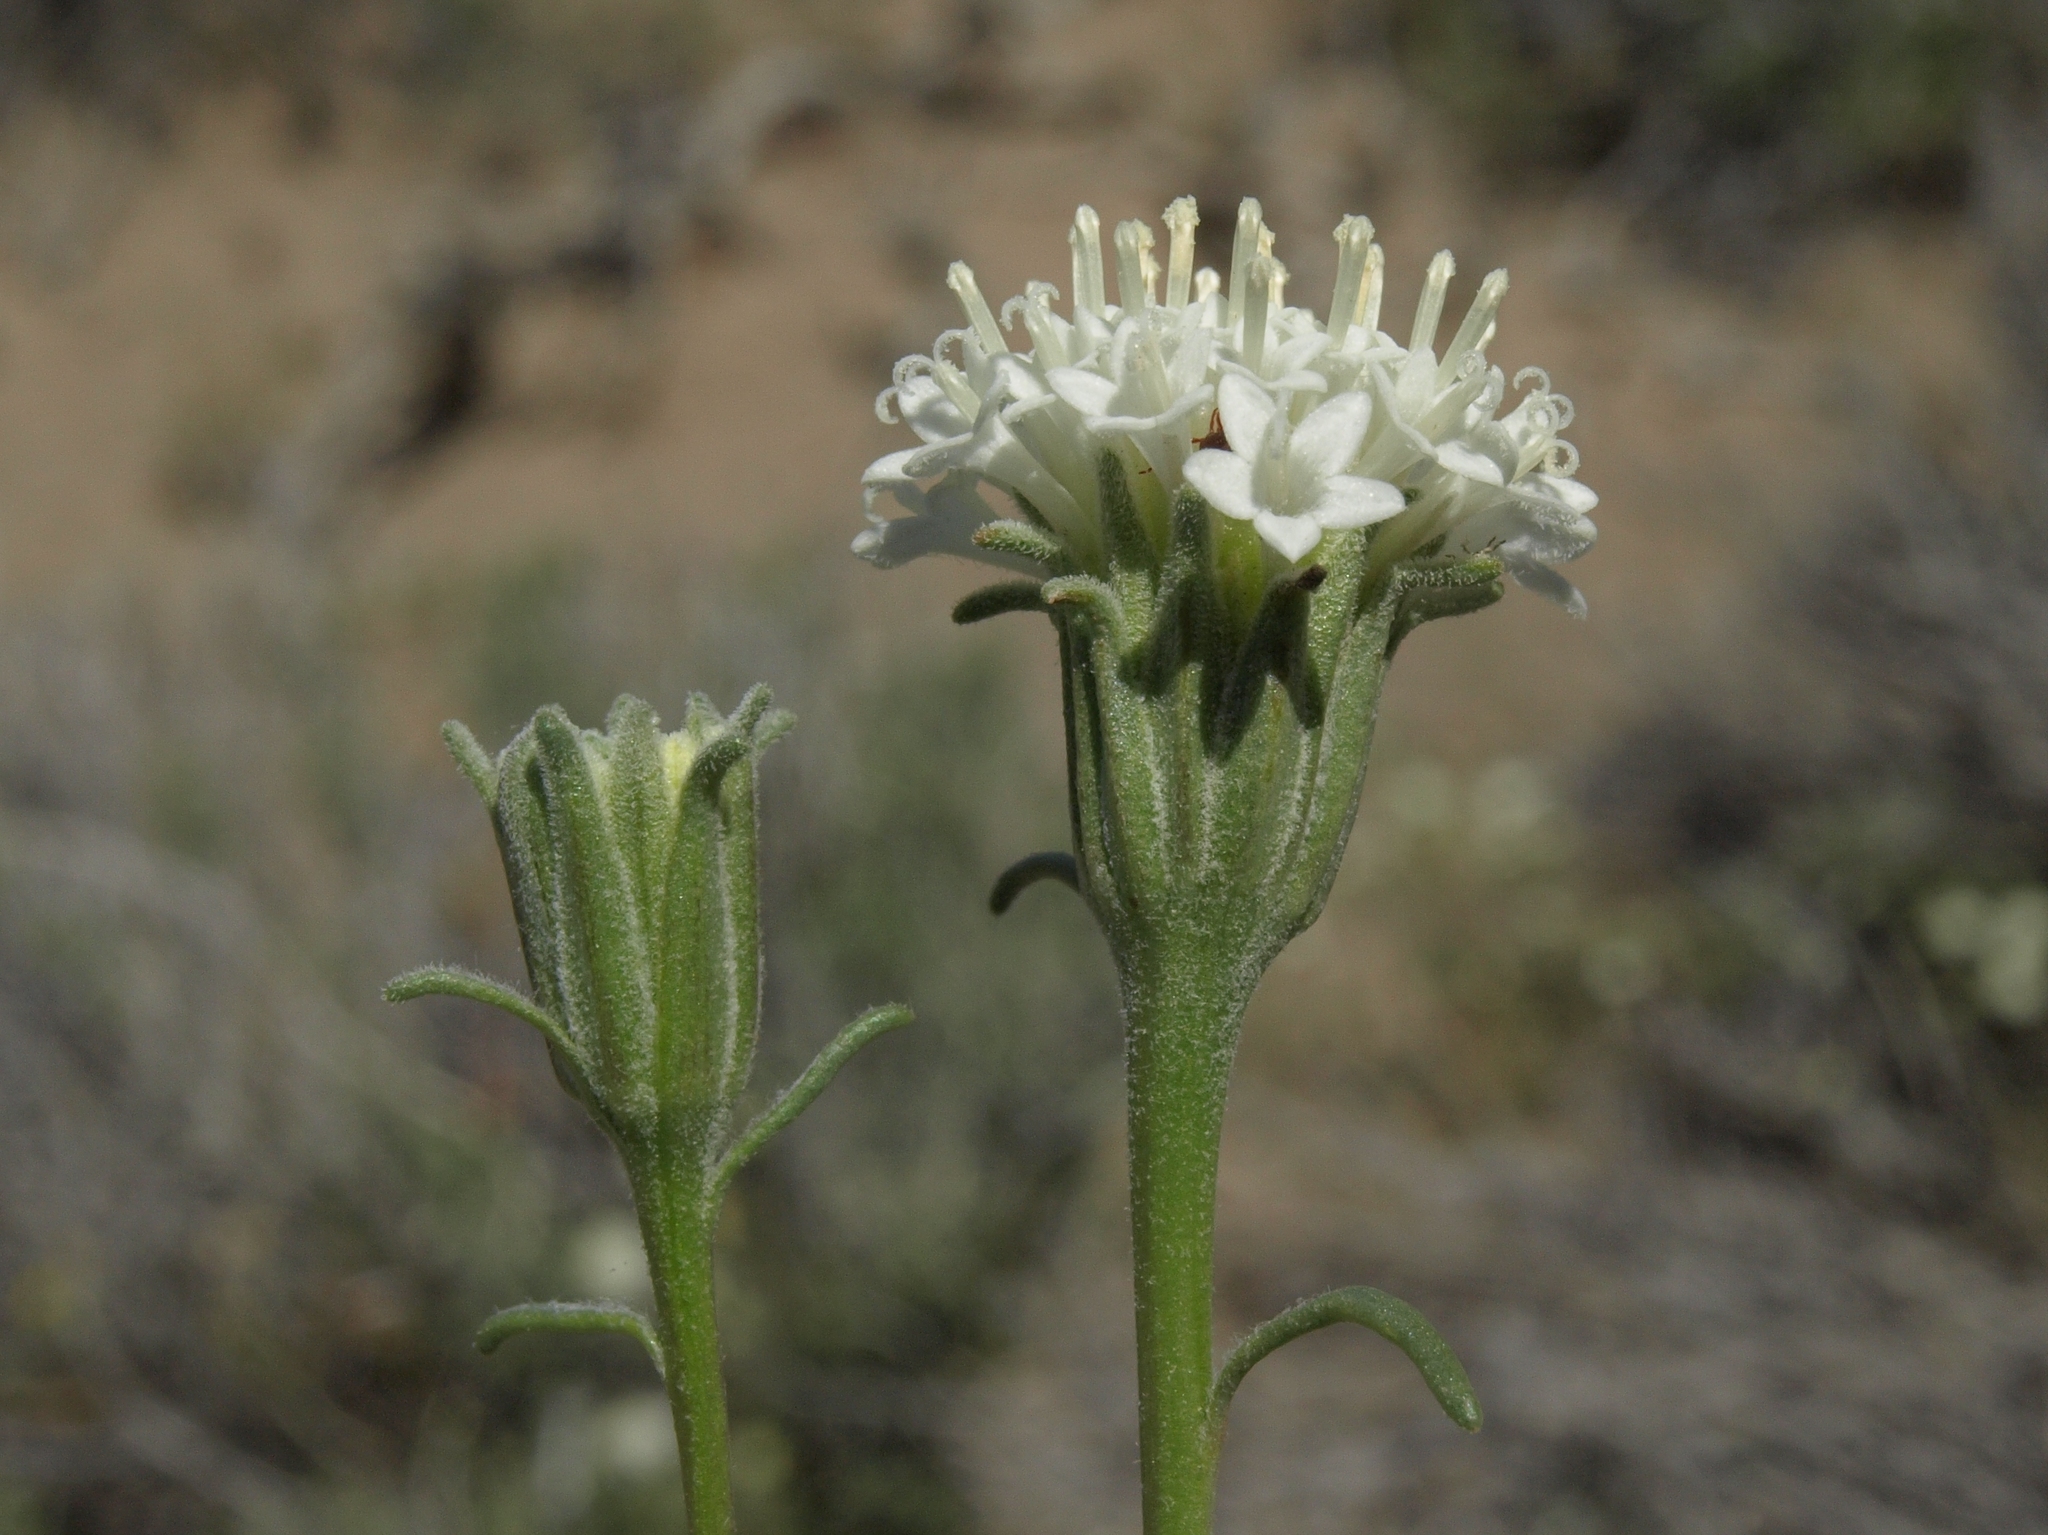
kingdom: Plantae
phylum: Tracheophyta
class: Magnoliopsida
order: Asterales
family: Asteraceae
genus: Chaenactis
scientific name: Chaenactis xantiana
